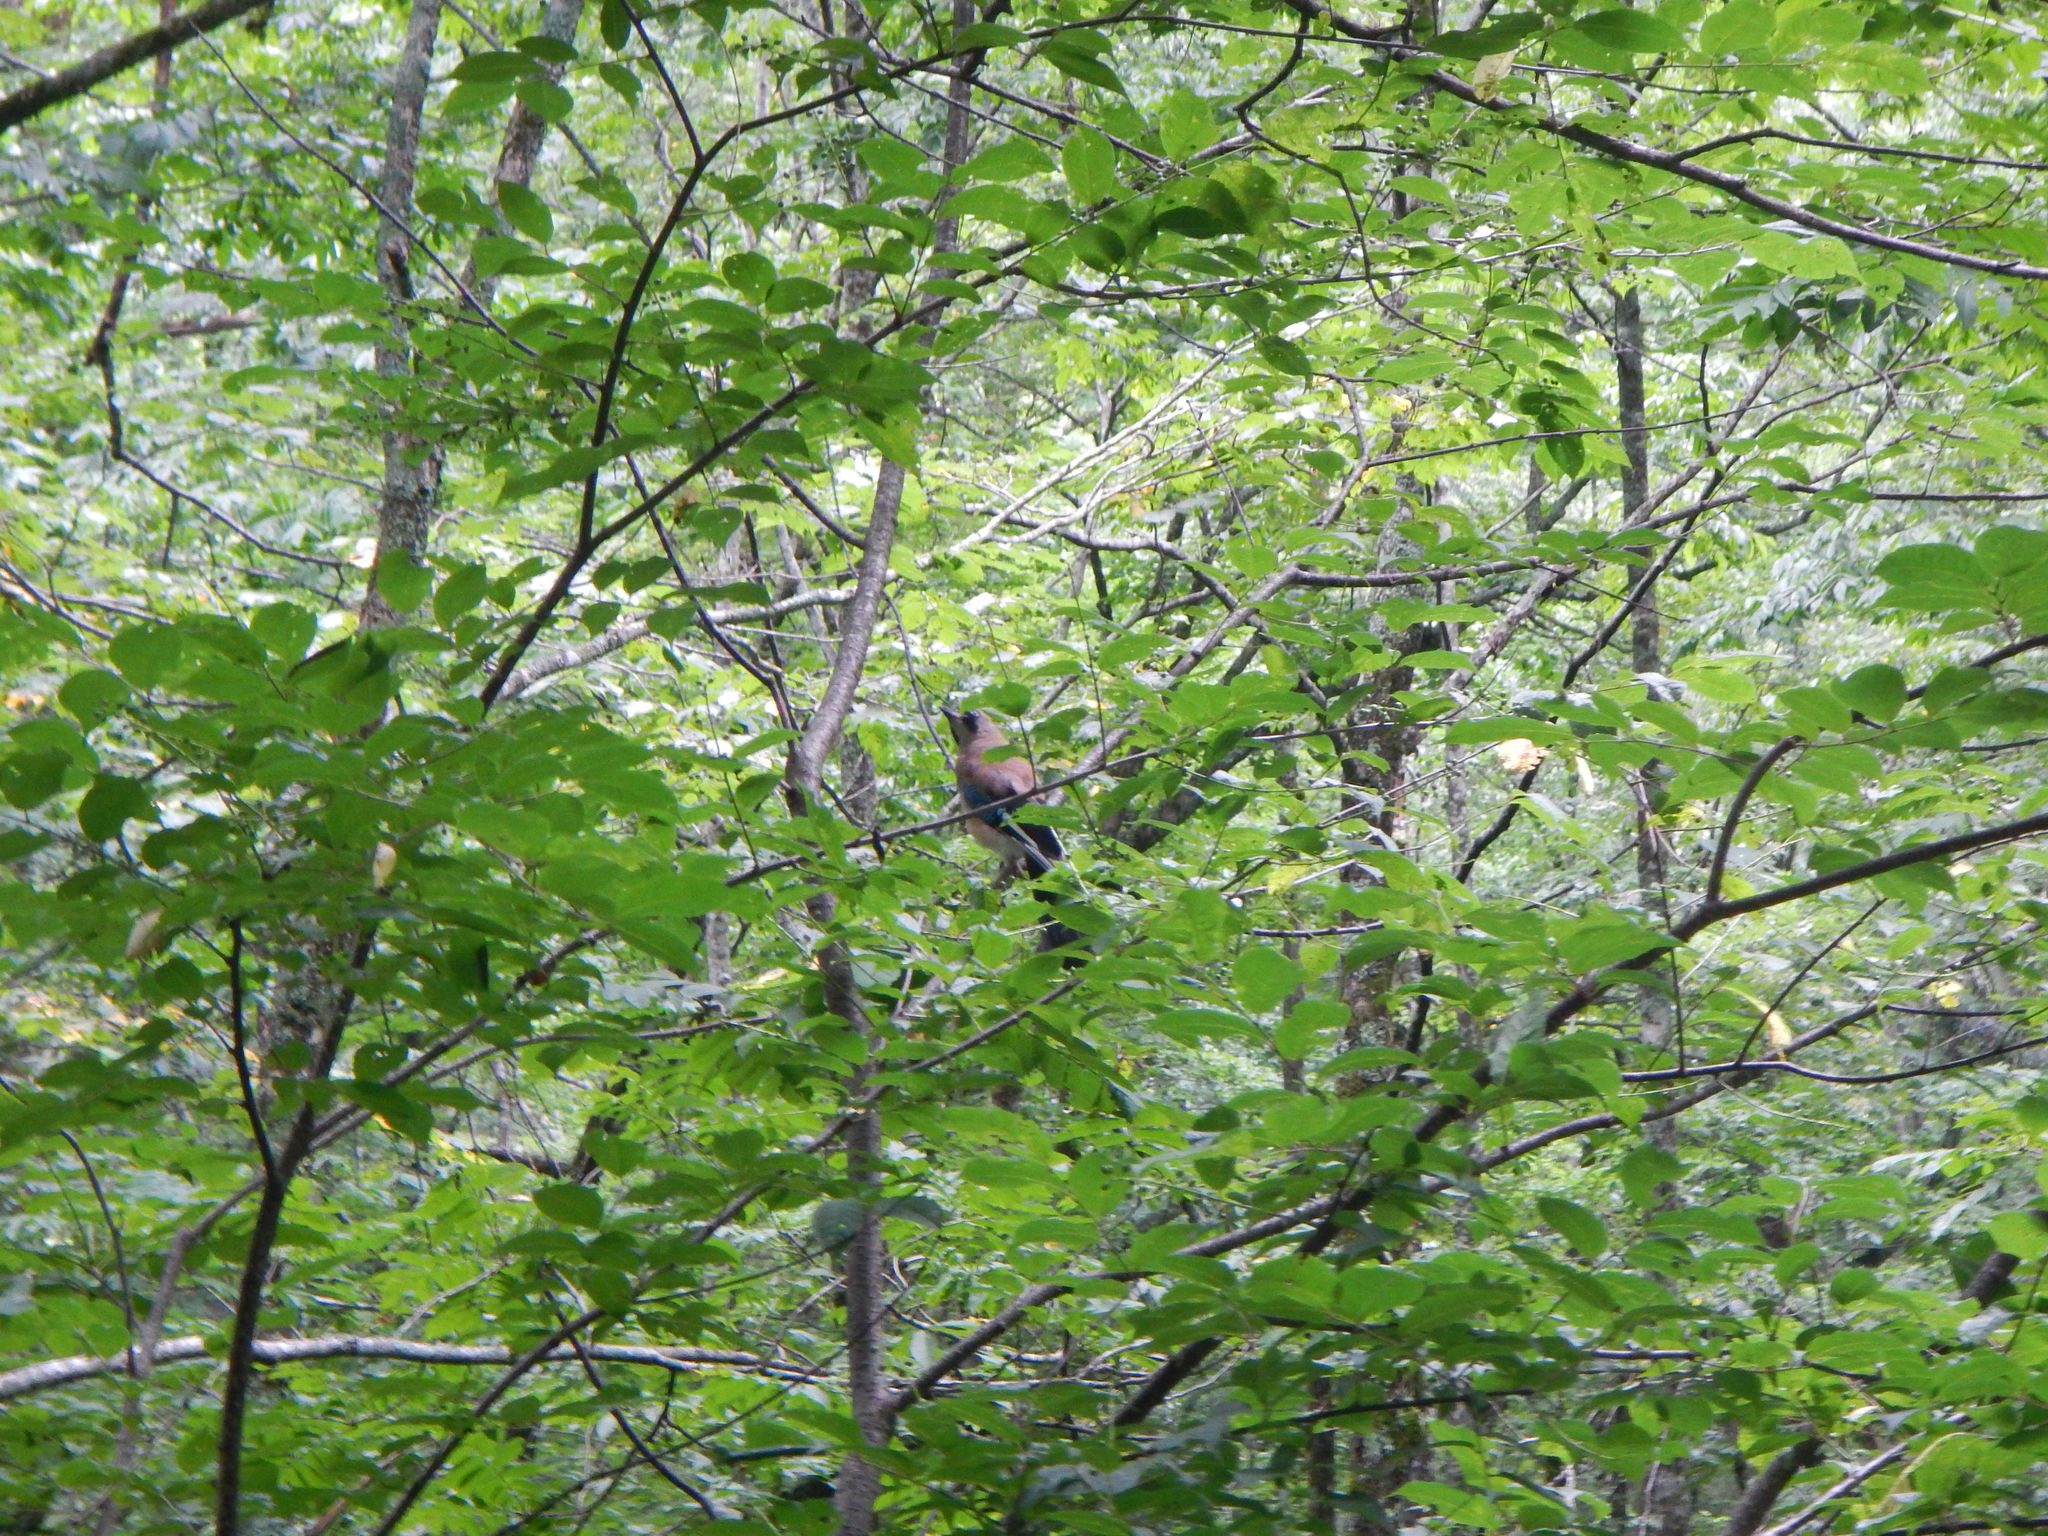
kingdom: Animalia
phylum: Chordata
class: Aves
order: Passeriformes
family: Corvidae
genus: Garrulus
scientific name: Garrulus glandarius
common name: Eurasian jay
